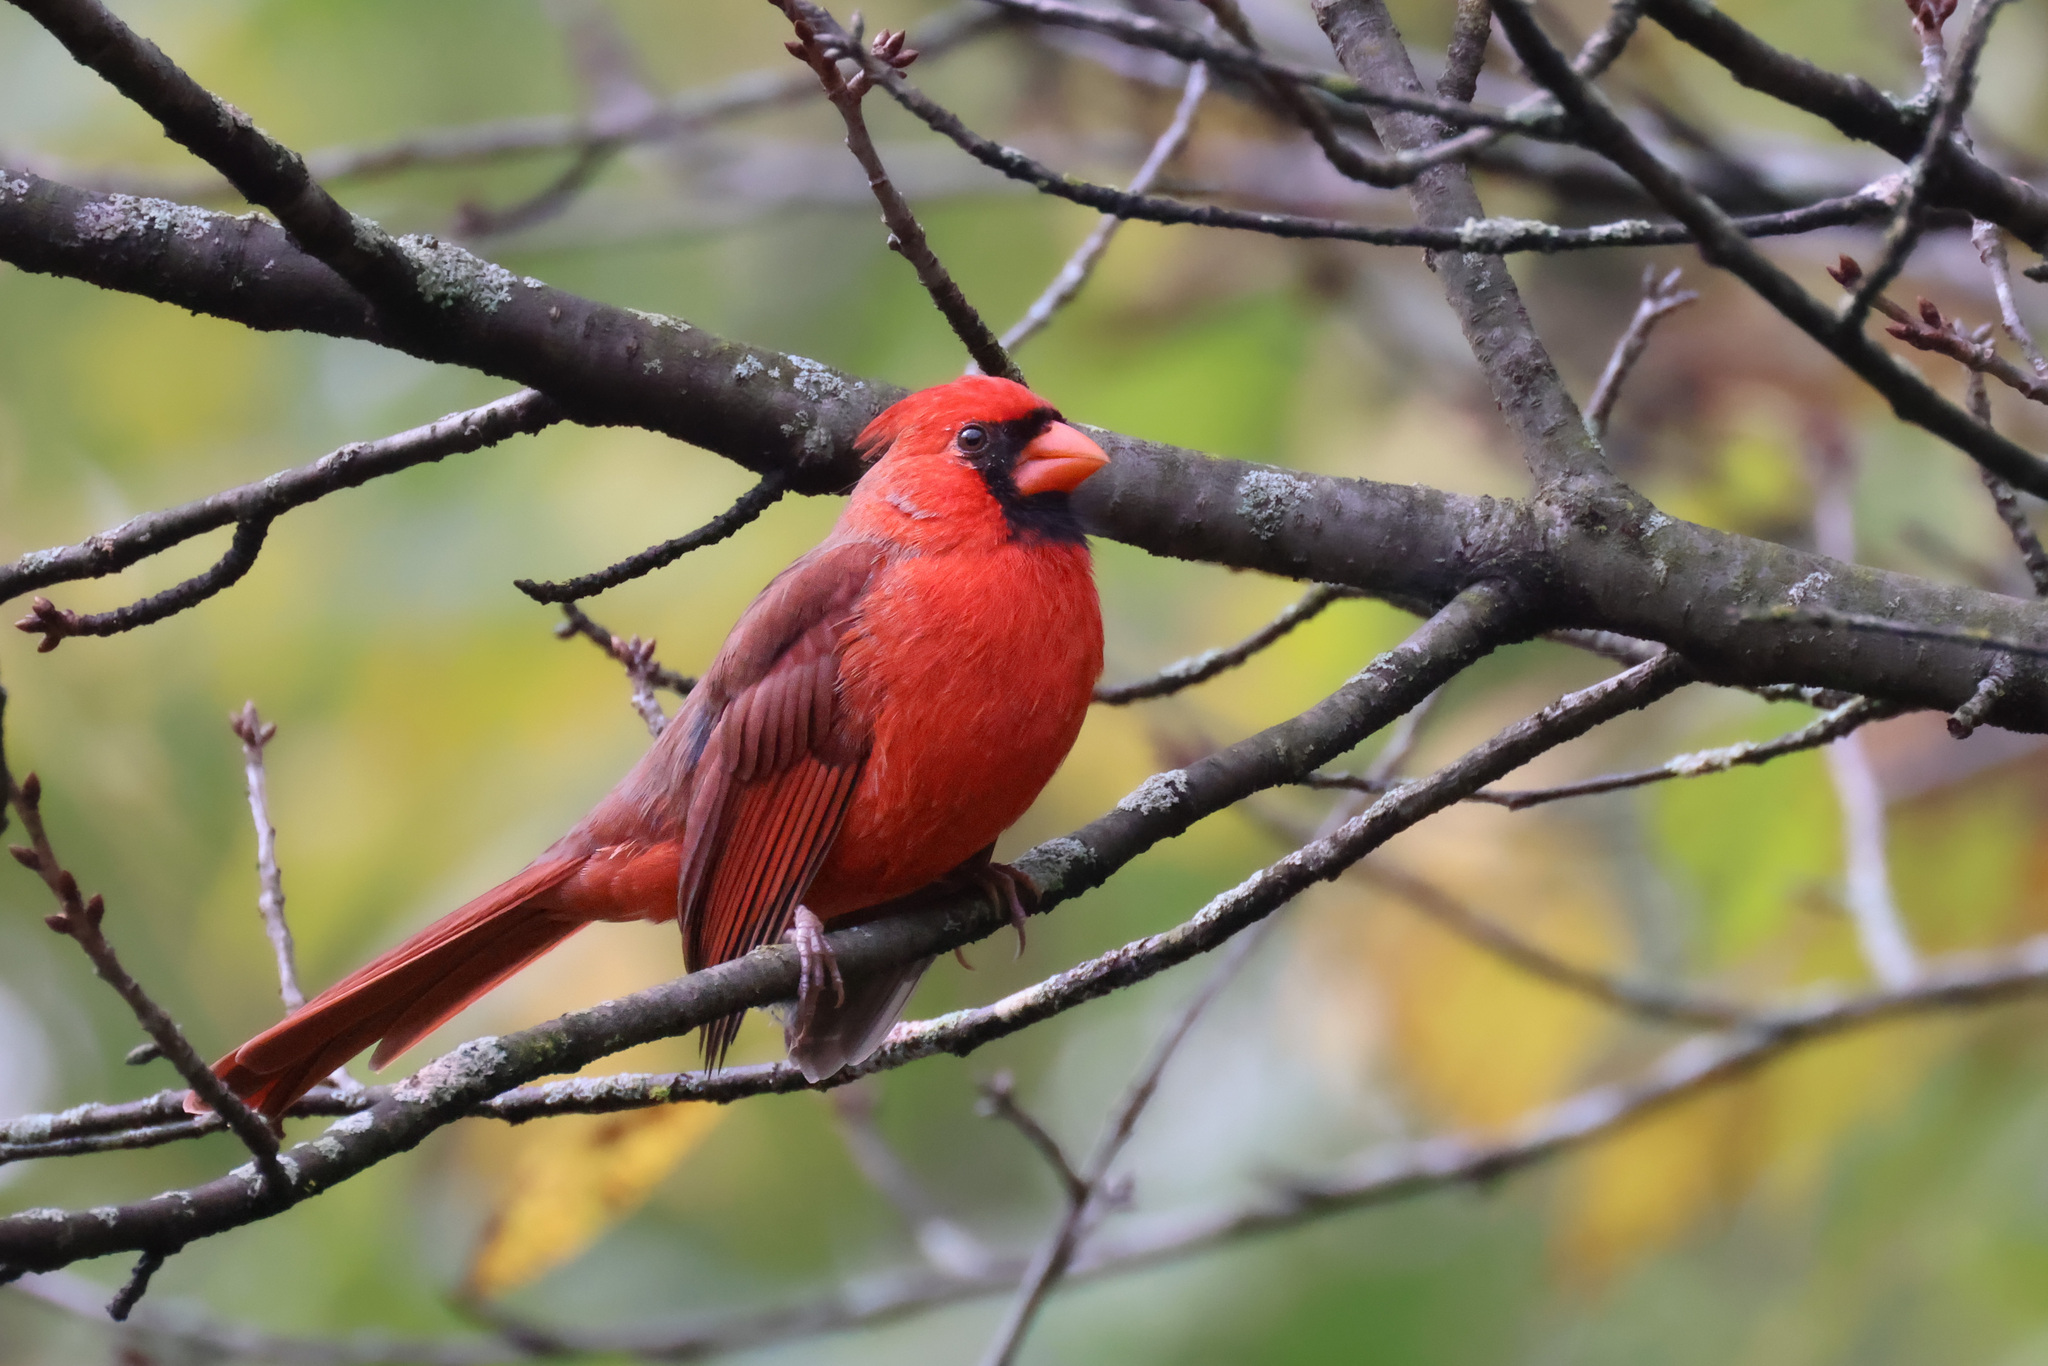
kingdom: Animalia
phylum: Chordata
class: Aves
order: Passeriformes
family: Cardinalidae
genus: Cardinalis
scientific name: Cardinalis cardinalis
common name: Northern cardinal
